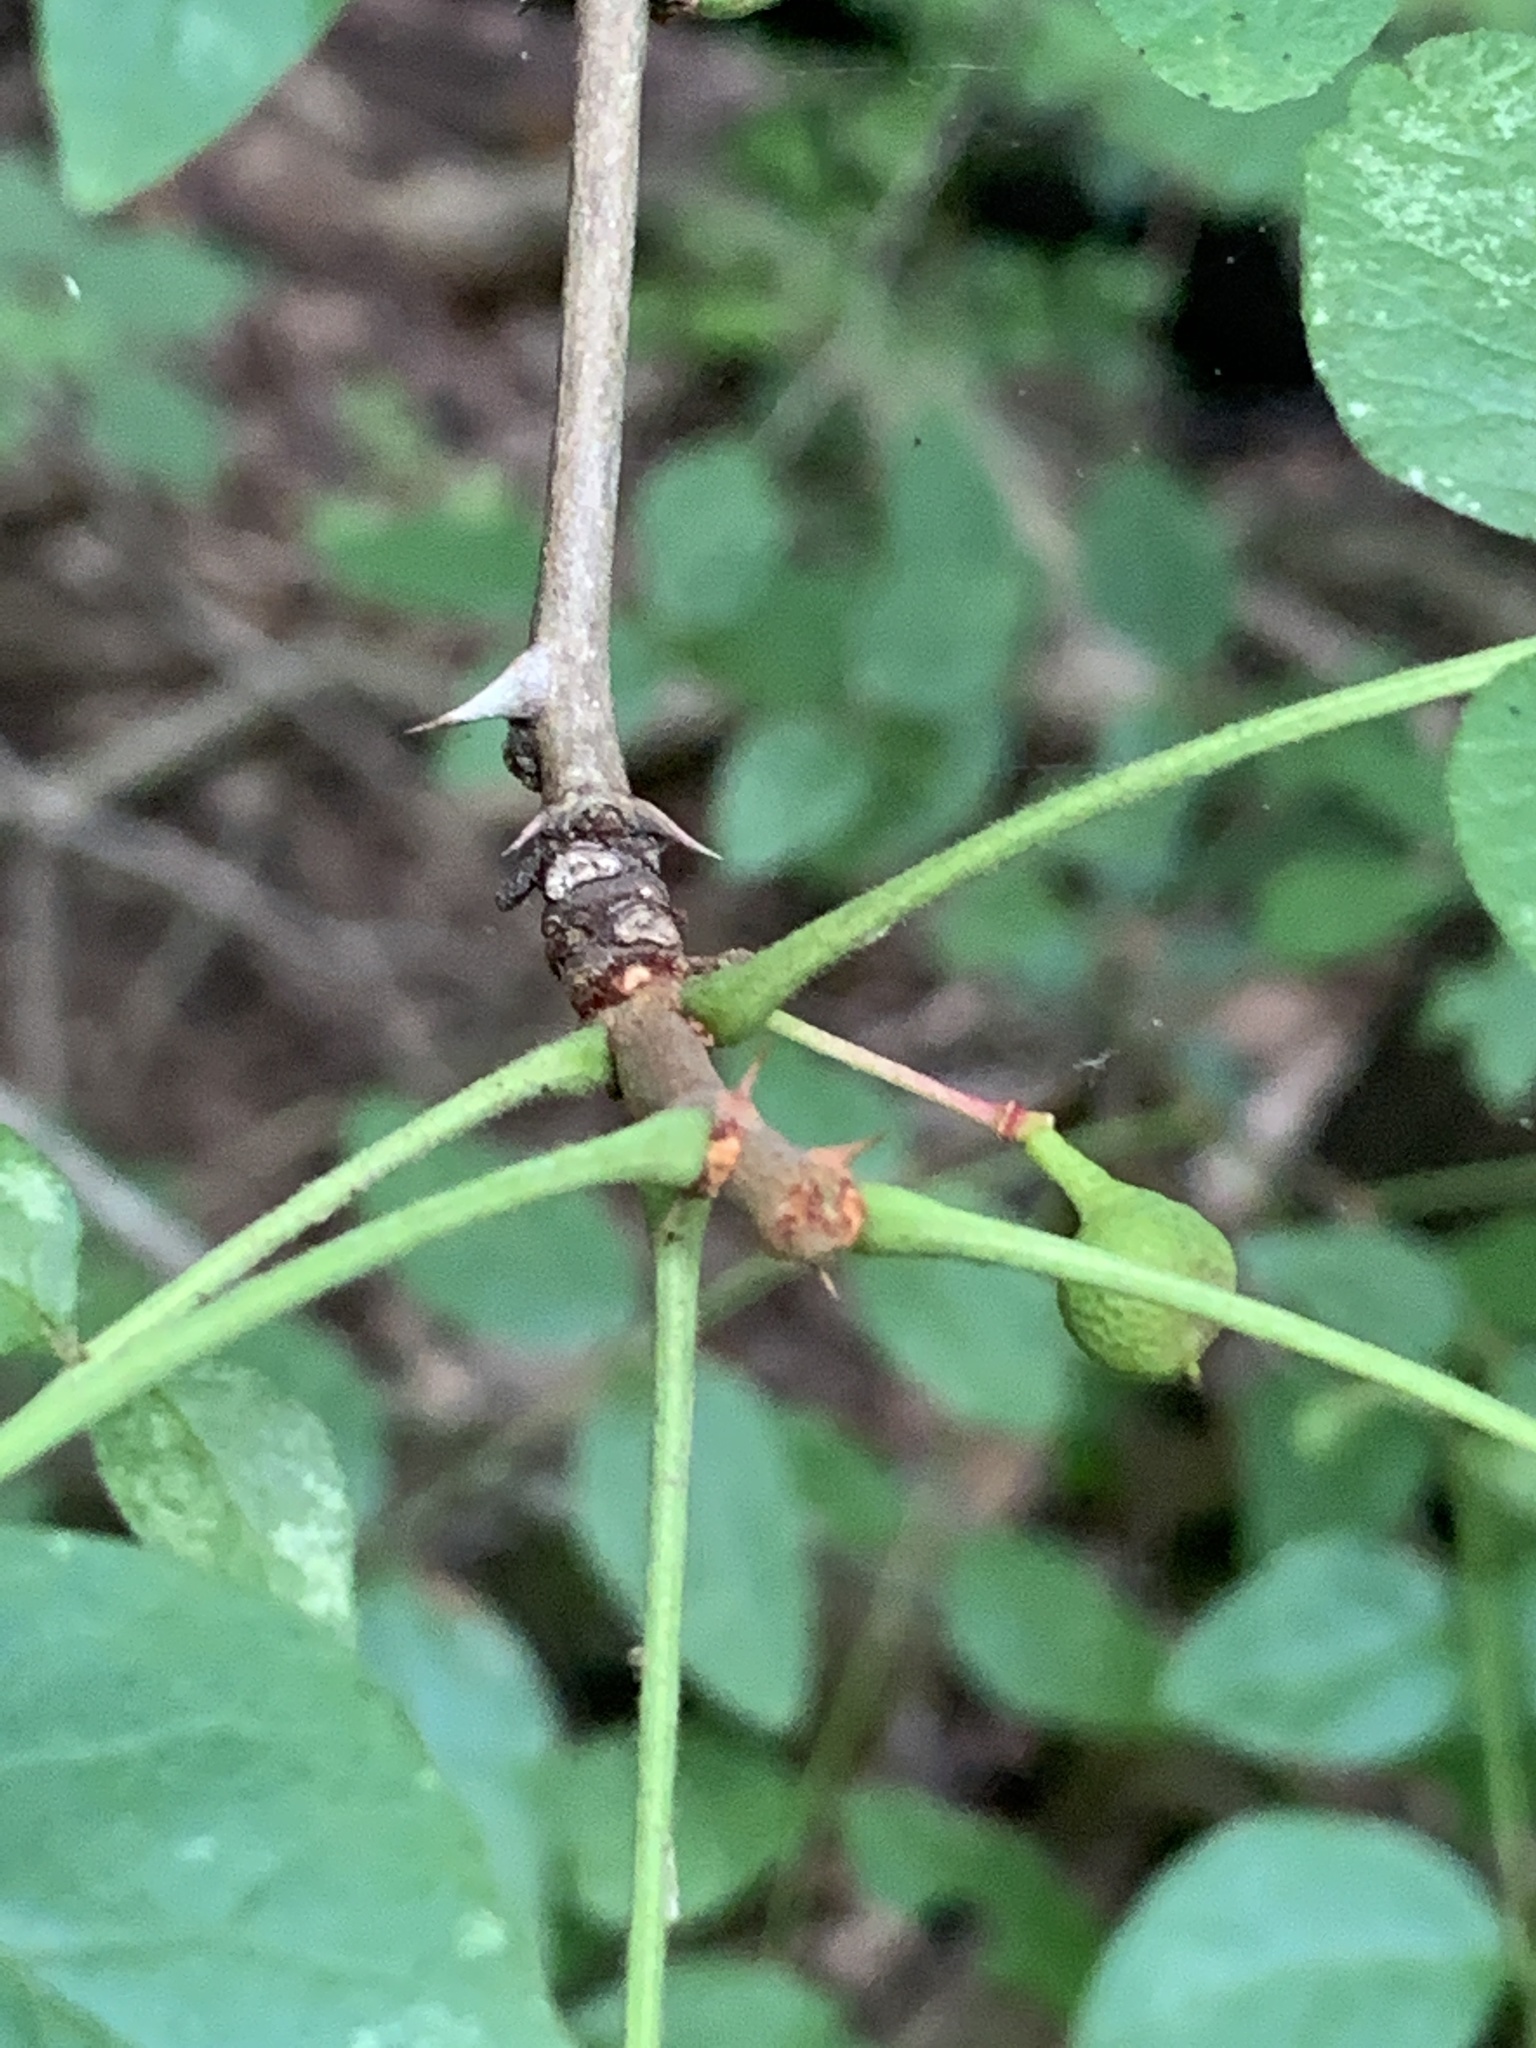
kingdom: Plantae
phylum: Tracheophyta
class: Magnoliopsida
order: Sapindales
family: Rutaceae
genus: Zanthoxylum
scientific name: Zanthoxylum americanum
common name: Northern prickly-ash
